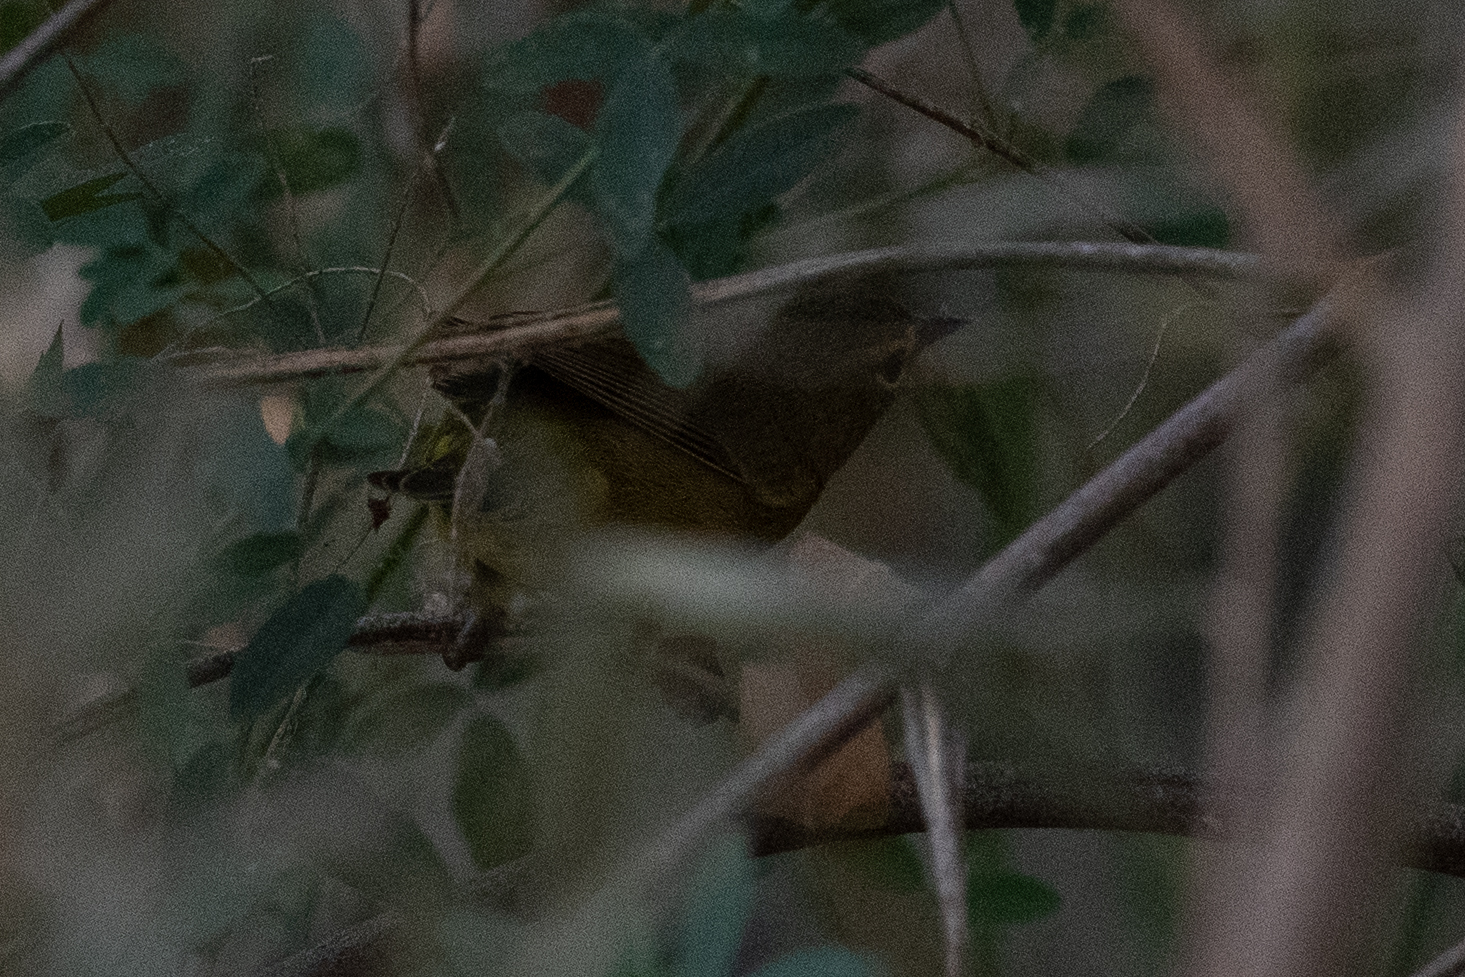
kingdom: Animalia
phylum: Chordata
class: Aves
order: Passeriformes
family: Parulidae
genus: Leiothlypis
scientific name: Leiothlypis celata
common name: Orange-crowned warbler
